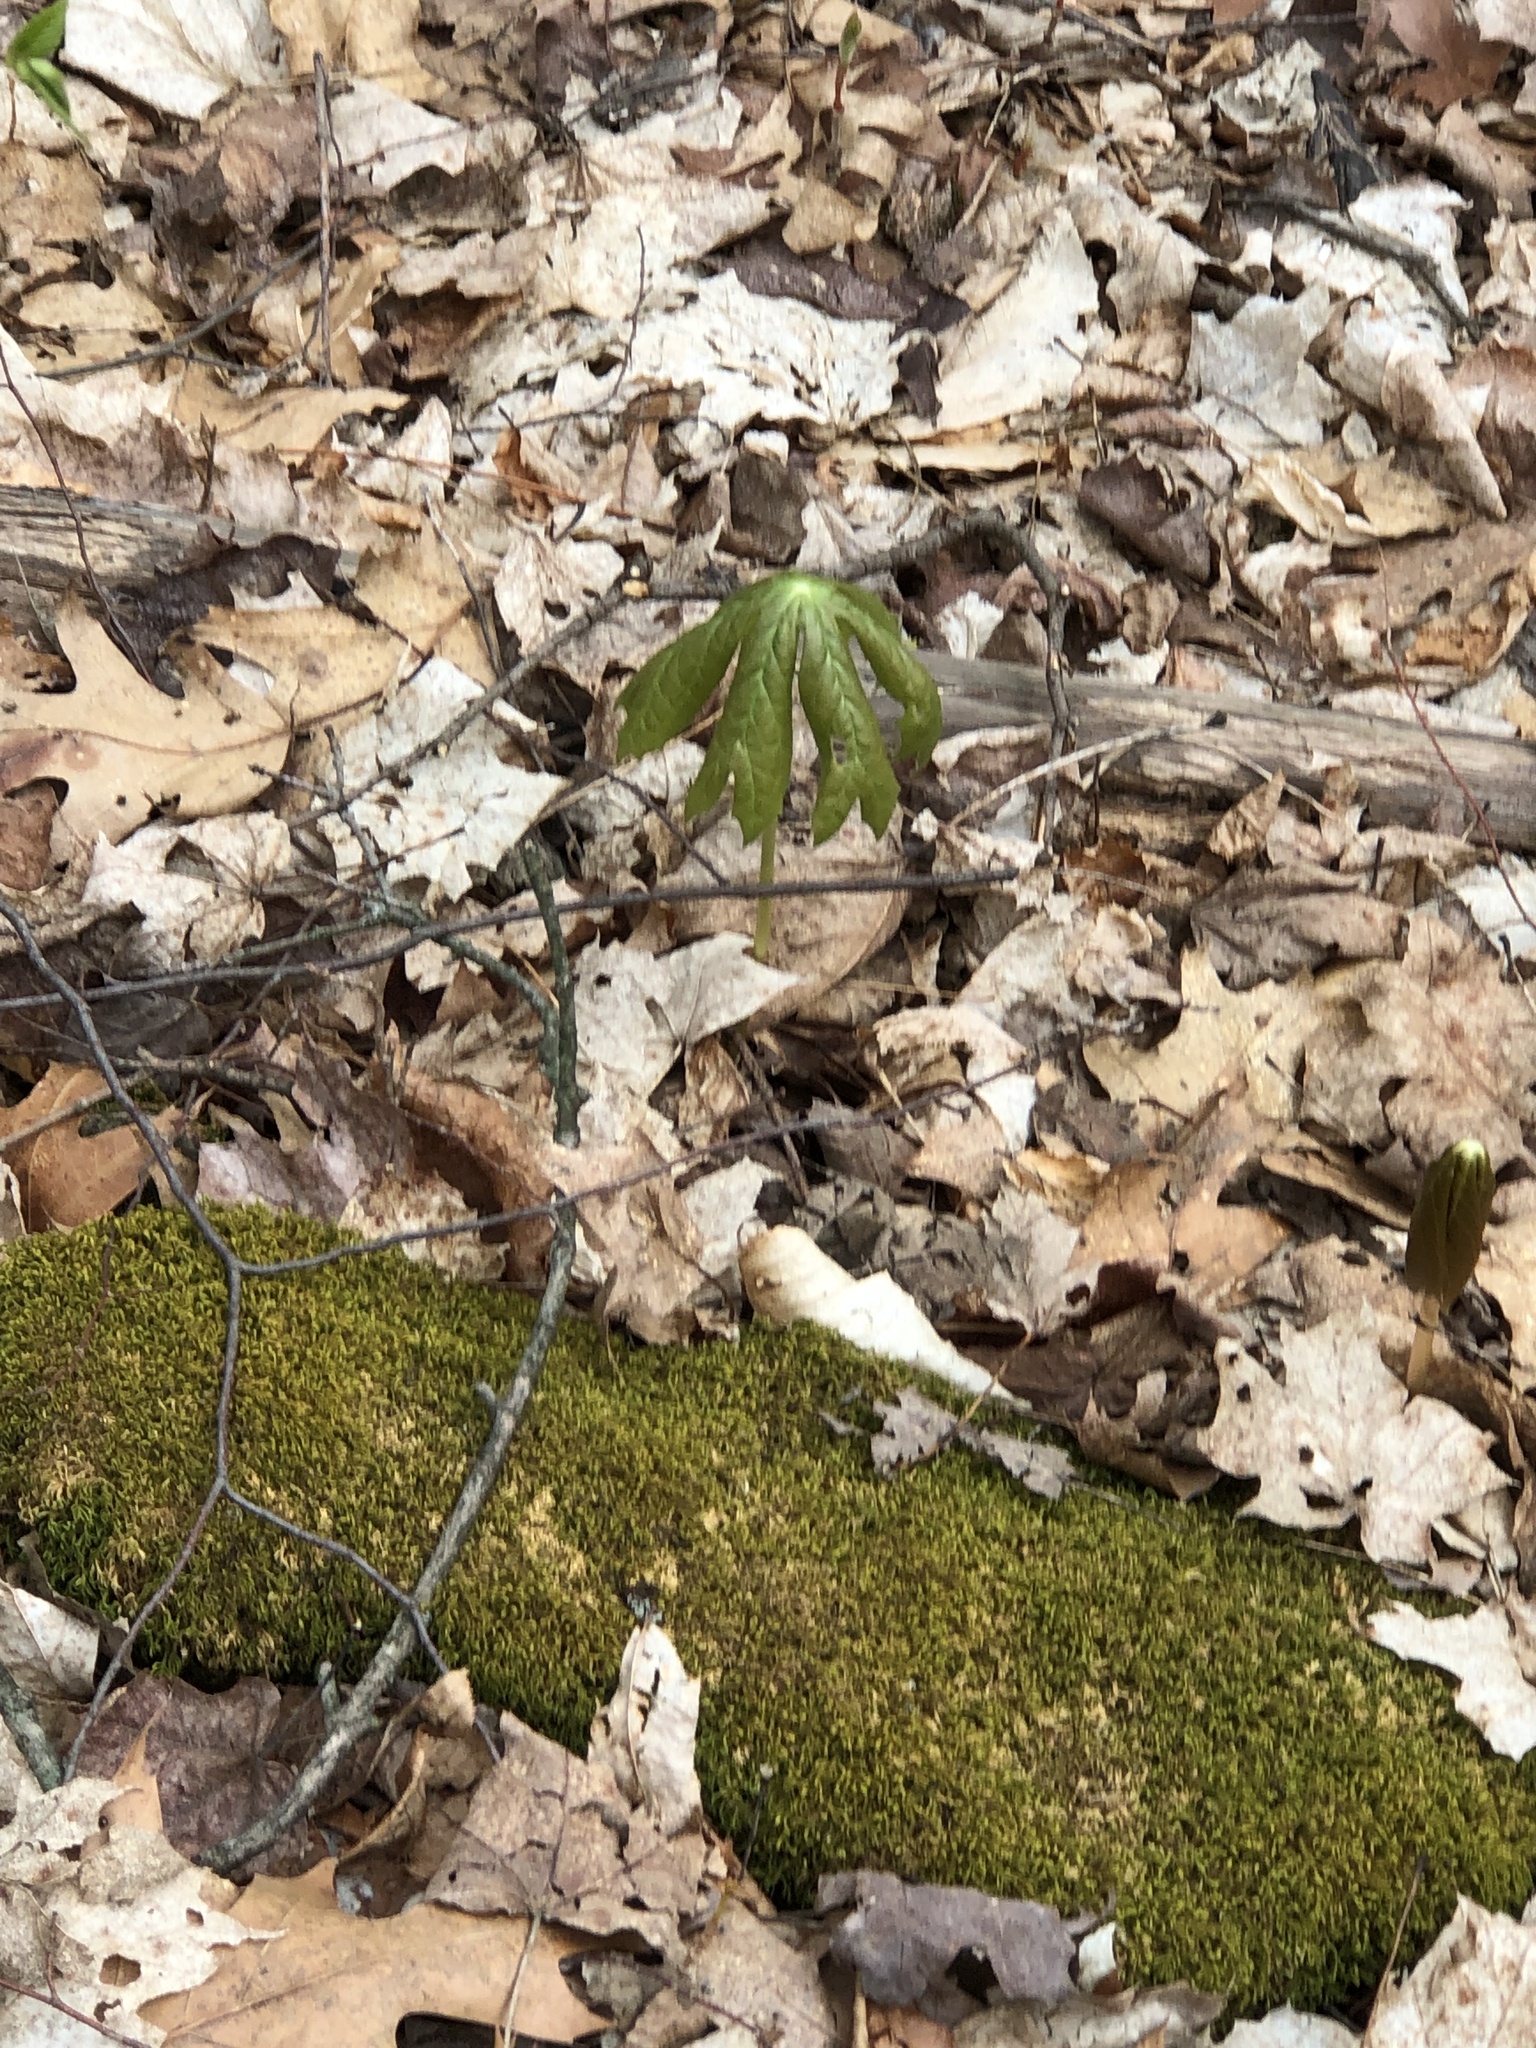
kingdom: Plantae
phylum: Tracheophyta
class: Magnoliopsida
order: Ranunculales
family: Berberidaceae
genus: Podophyllum
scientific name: Podophyllum peltatum
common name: Wild mandrake
